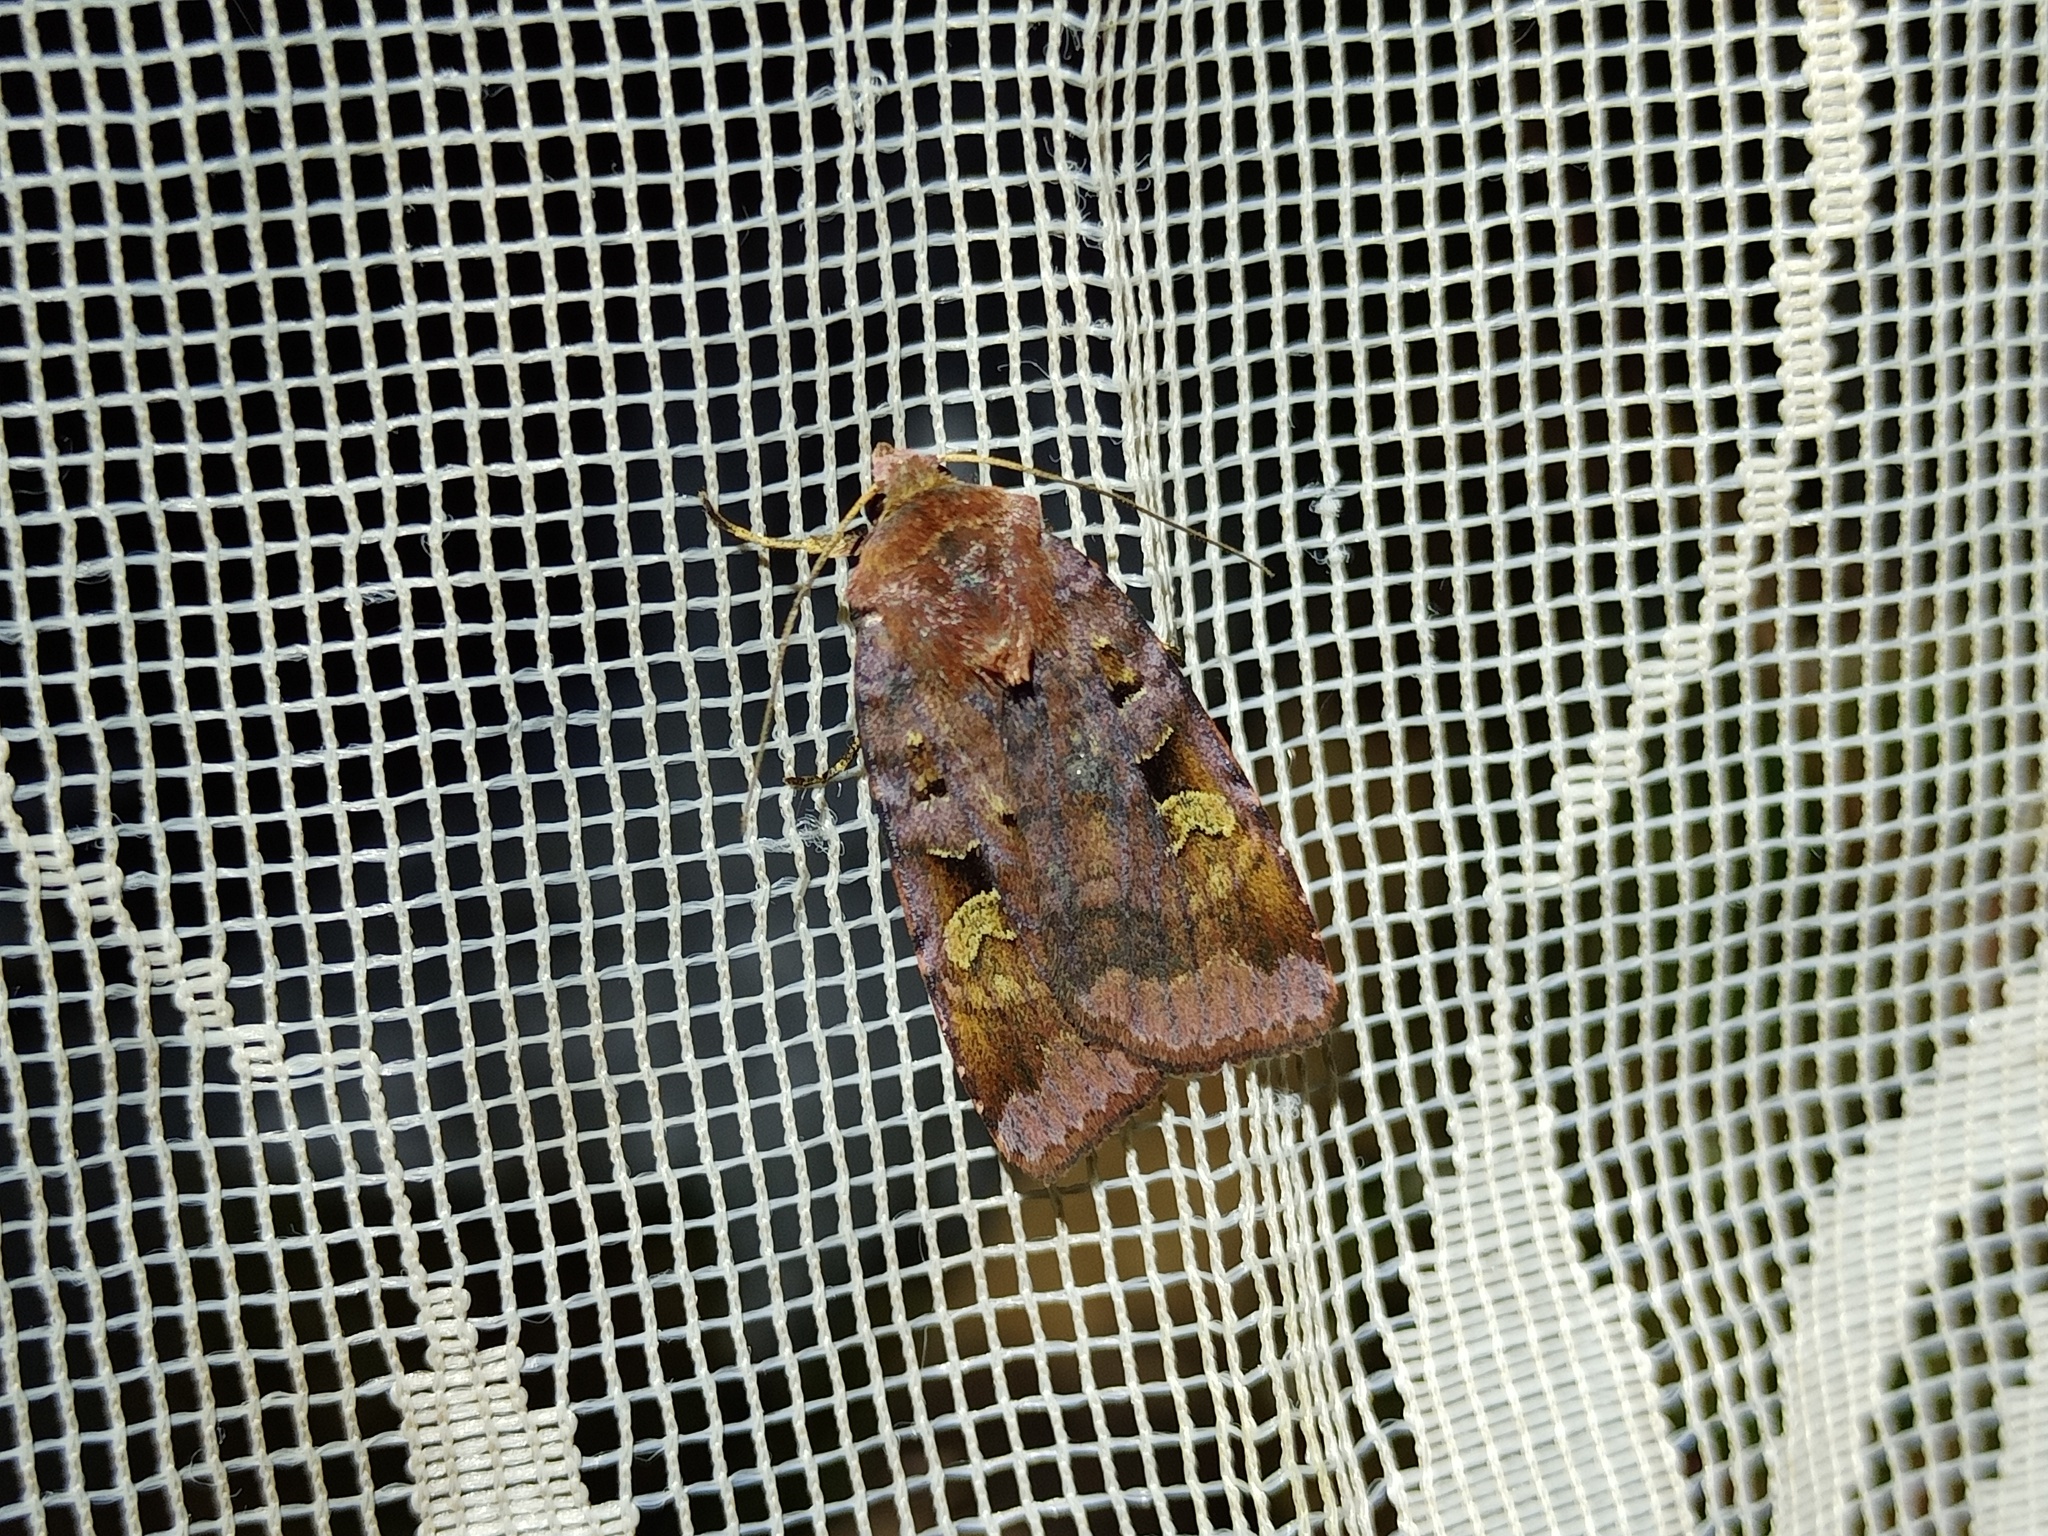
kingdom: Animalia
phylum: Arthropoda
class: Insecta
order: Lepidoptera
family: Noctuidae
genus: Diarsia
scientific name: Diarsia brunnea
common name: Purple clay
